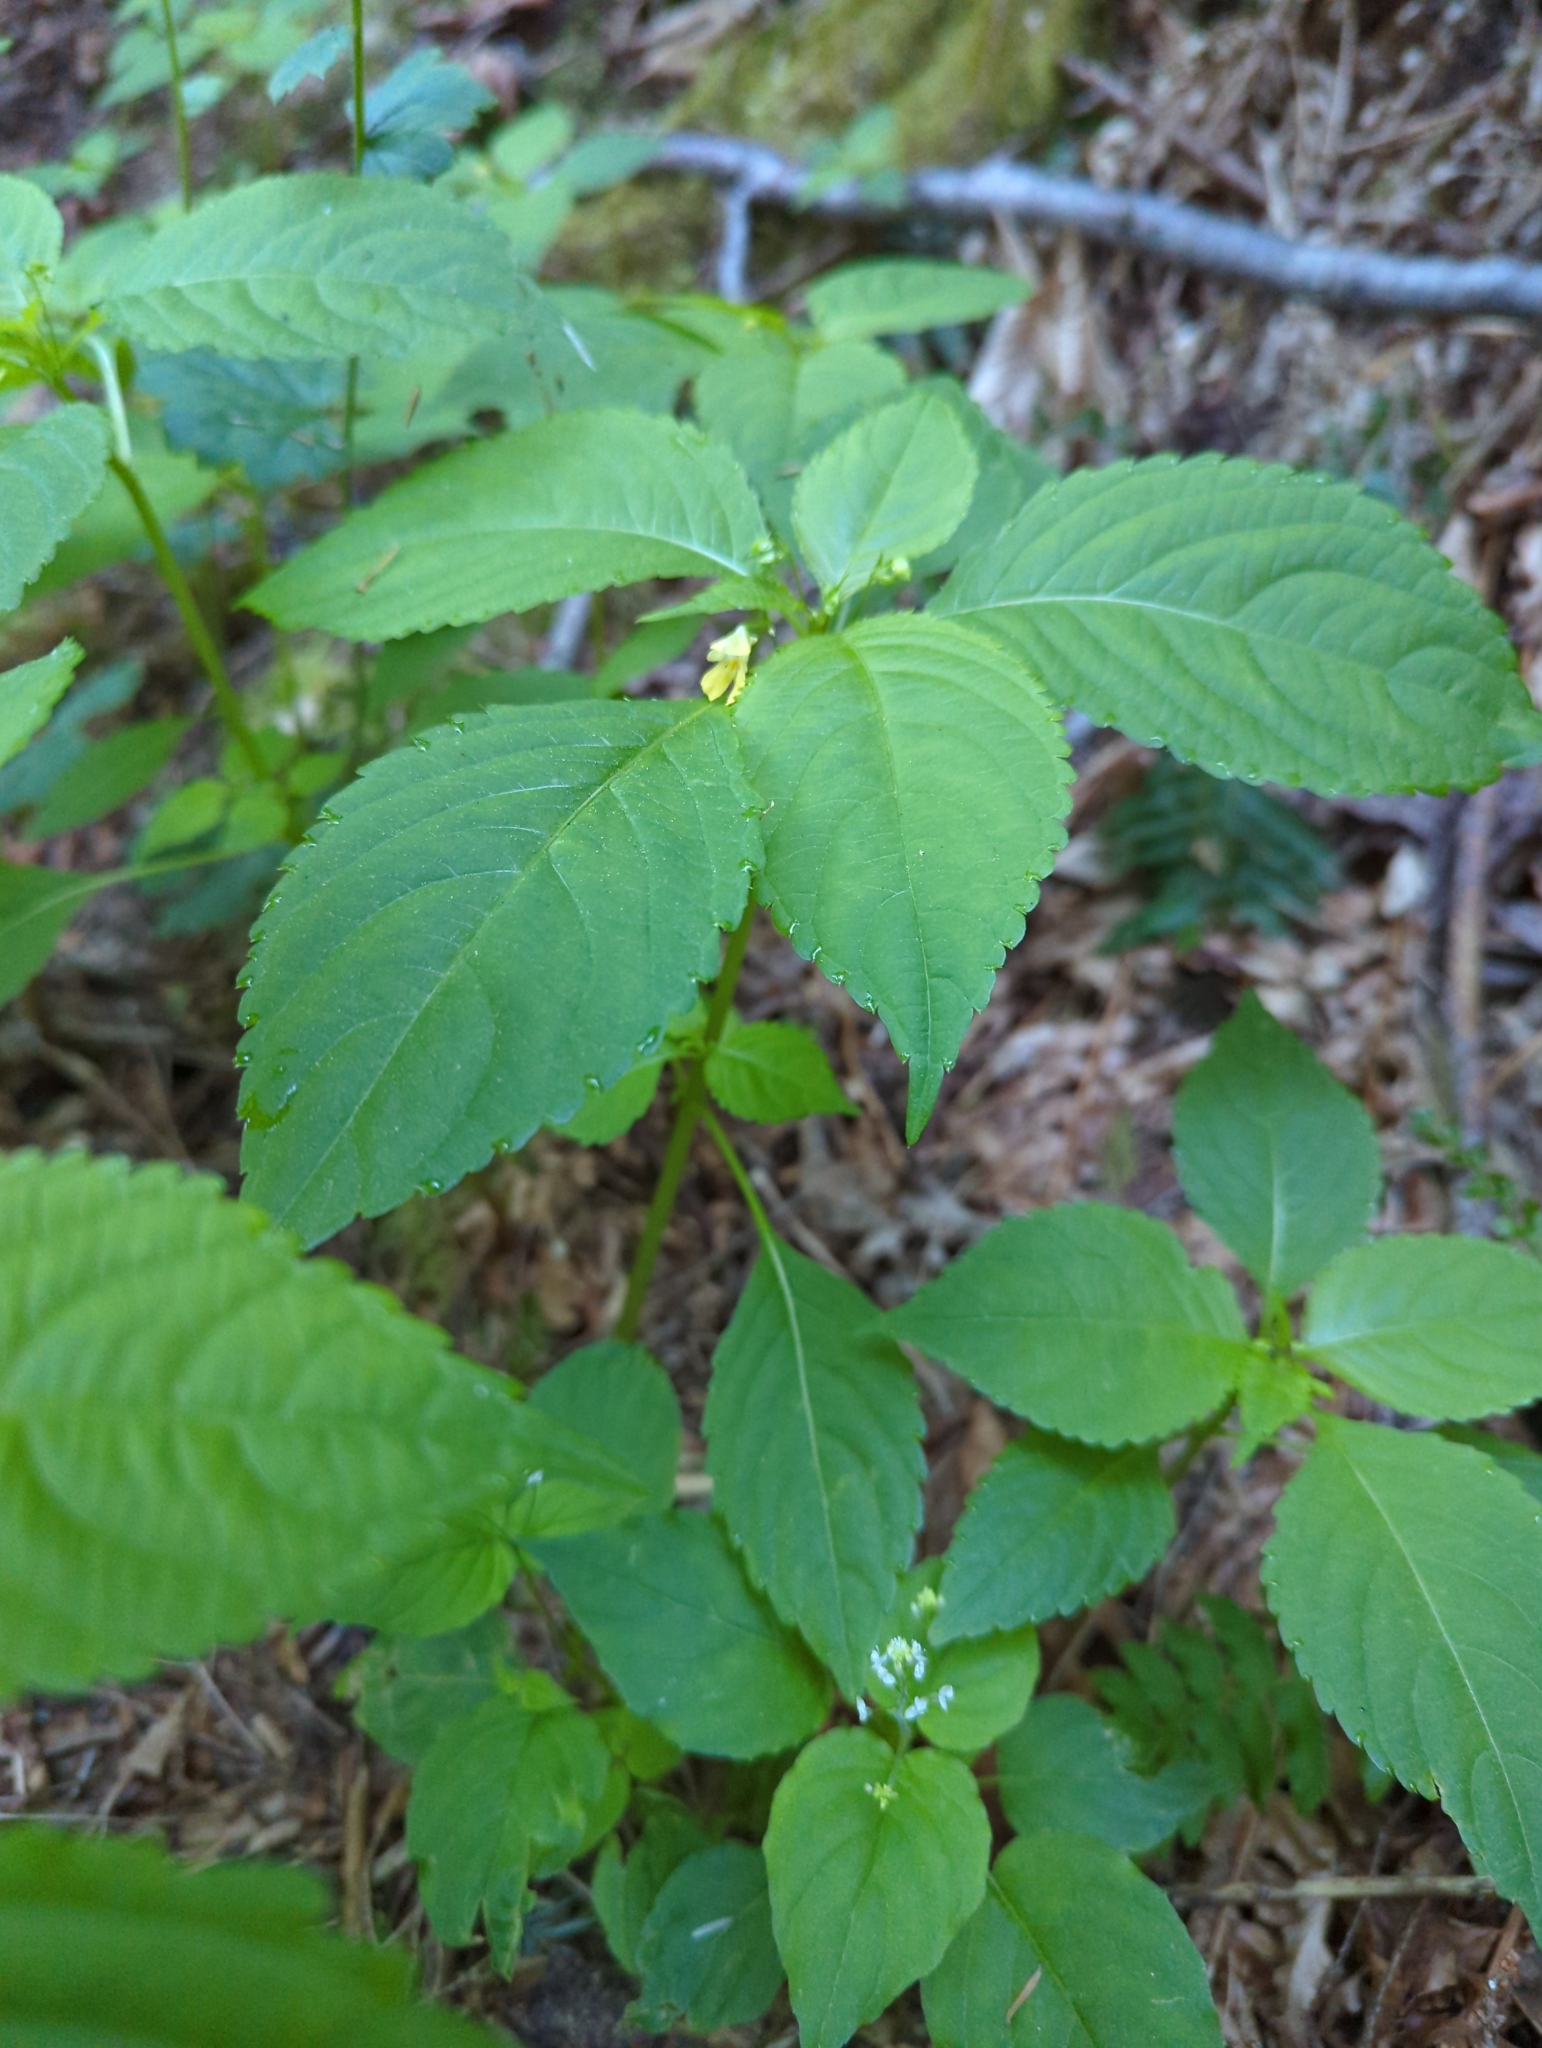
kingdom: Plantae
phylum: Tracheophyta
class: Magnoliopsida
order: Ericales
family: Balsaminaceae
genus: Impatiens
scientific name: Impatiens parviflora
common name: Small balsam
